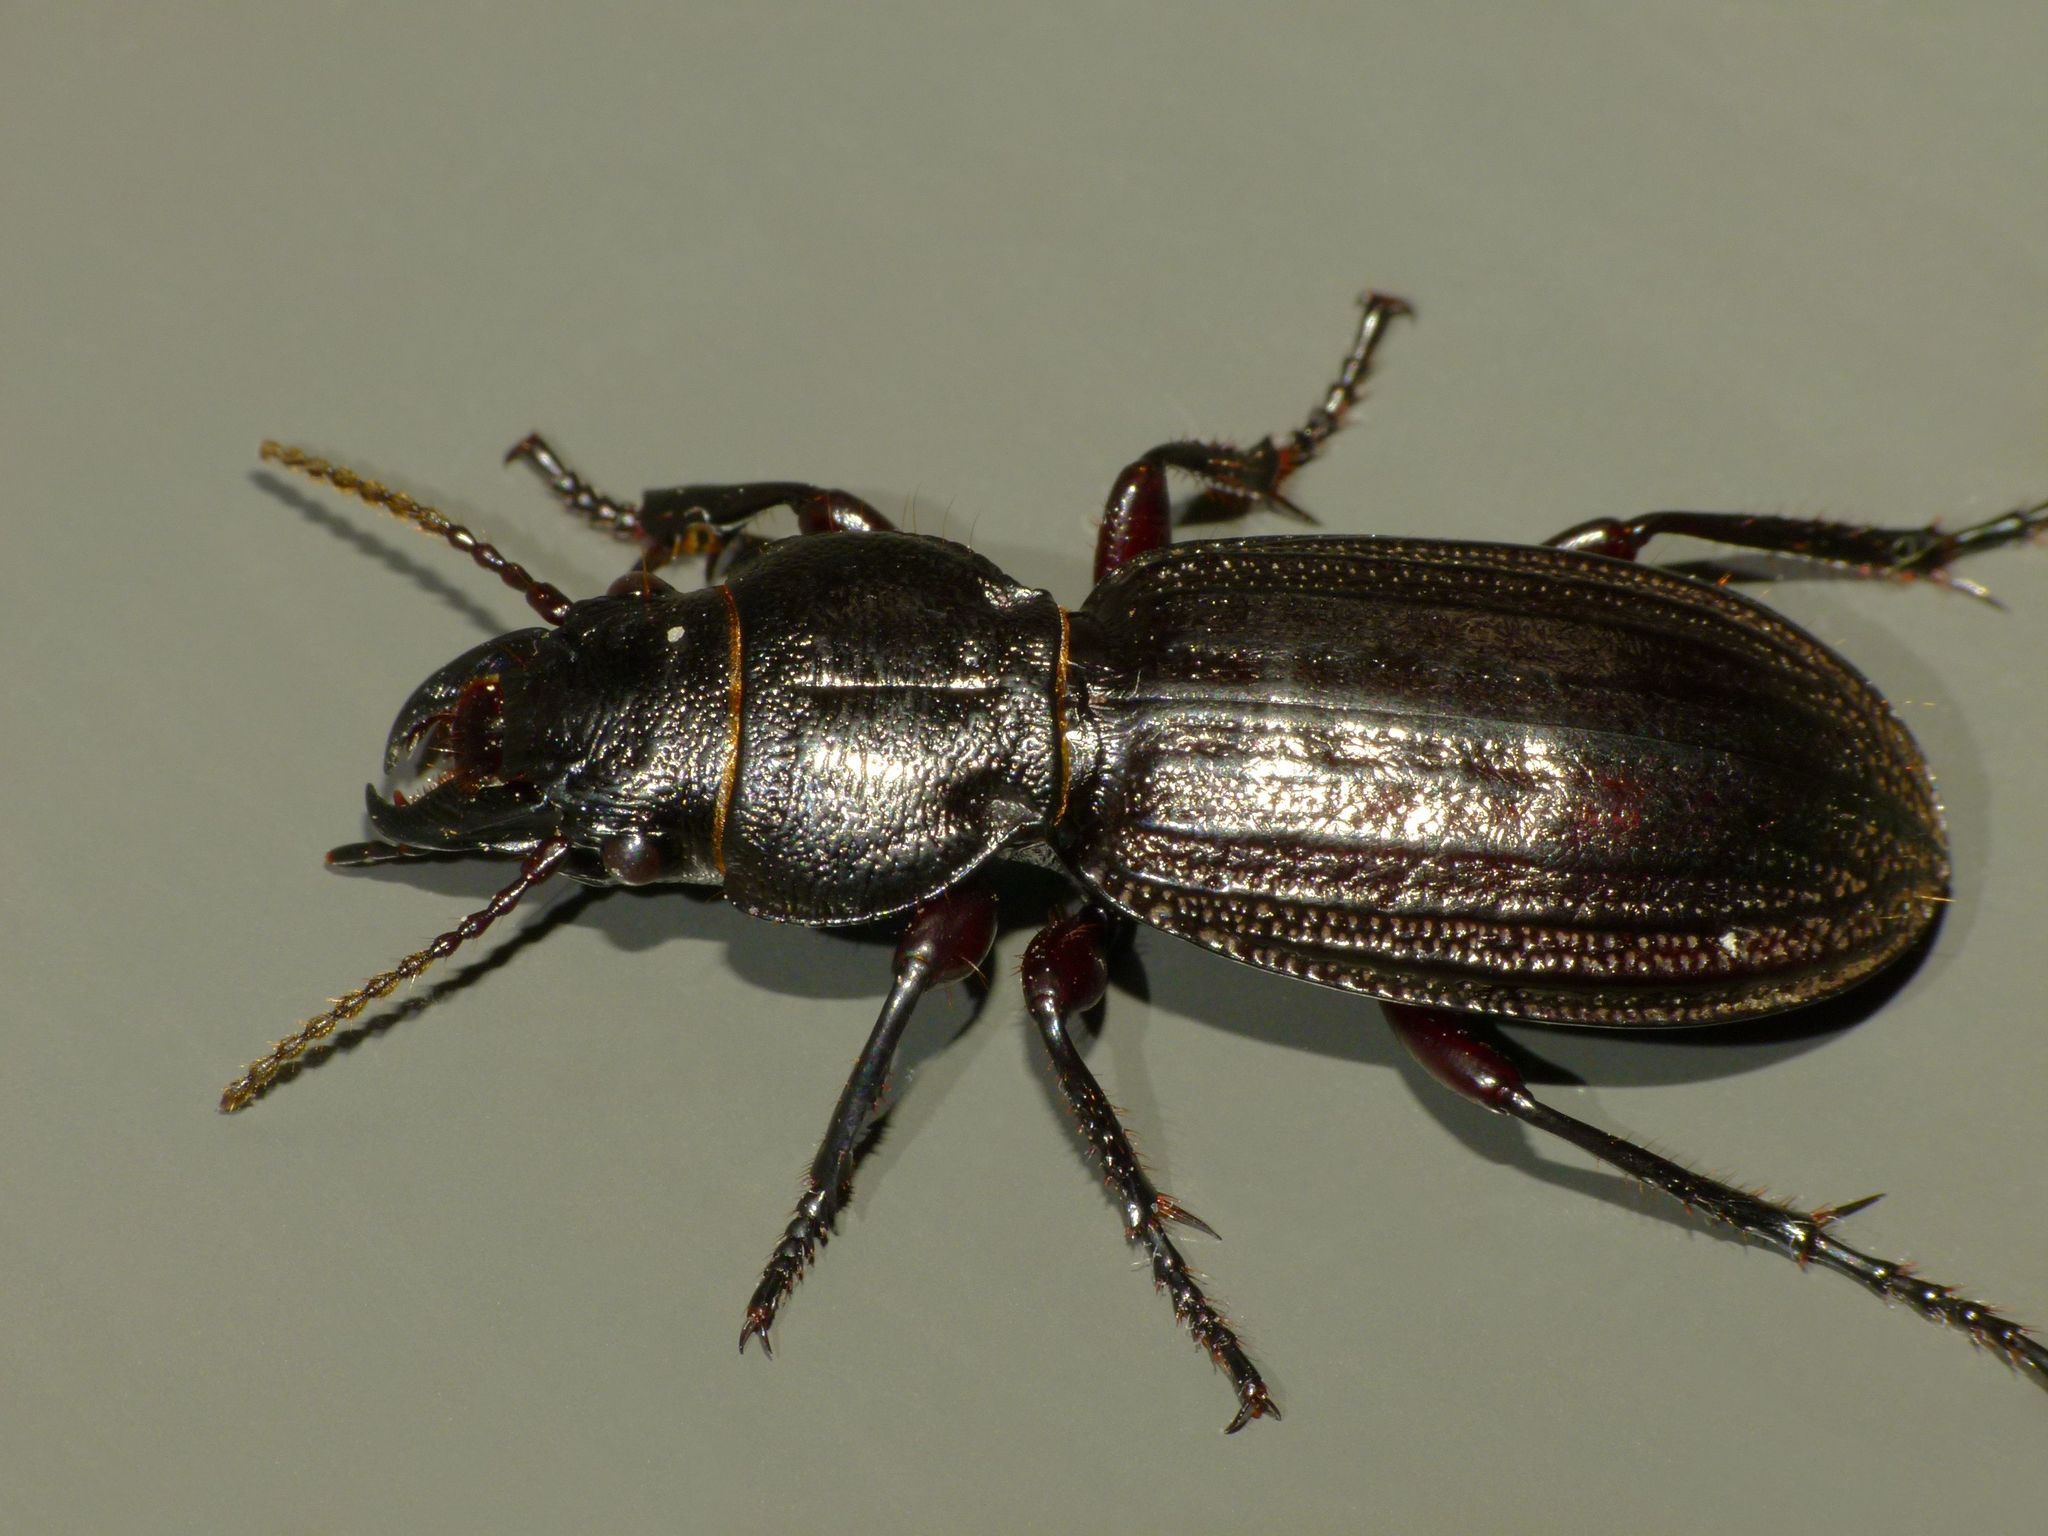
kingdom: Animalia
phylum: Arthropoda
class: Insecta
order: Coleoptera
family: Carabidae
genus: Mecodema
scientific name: Mecodema sculpturatum
